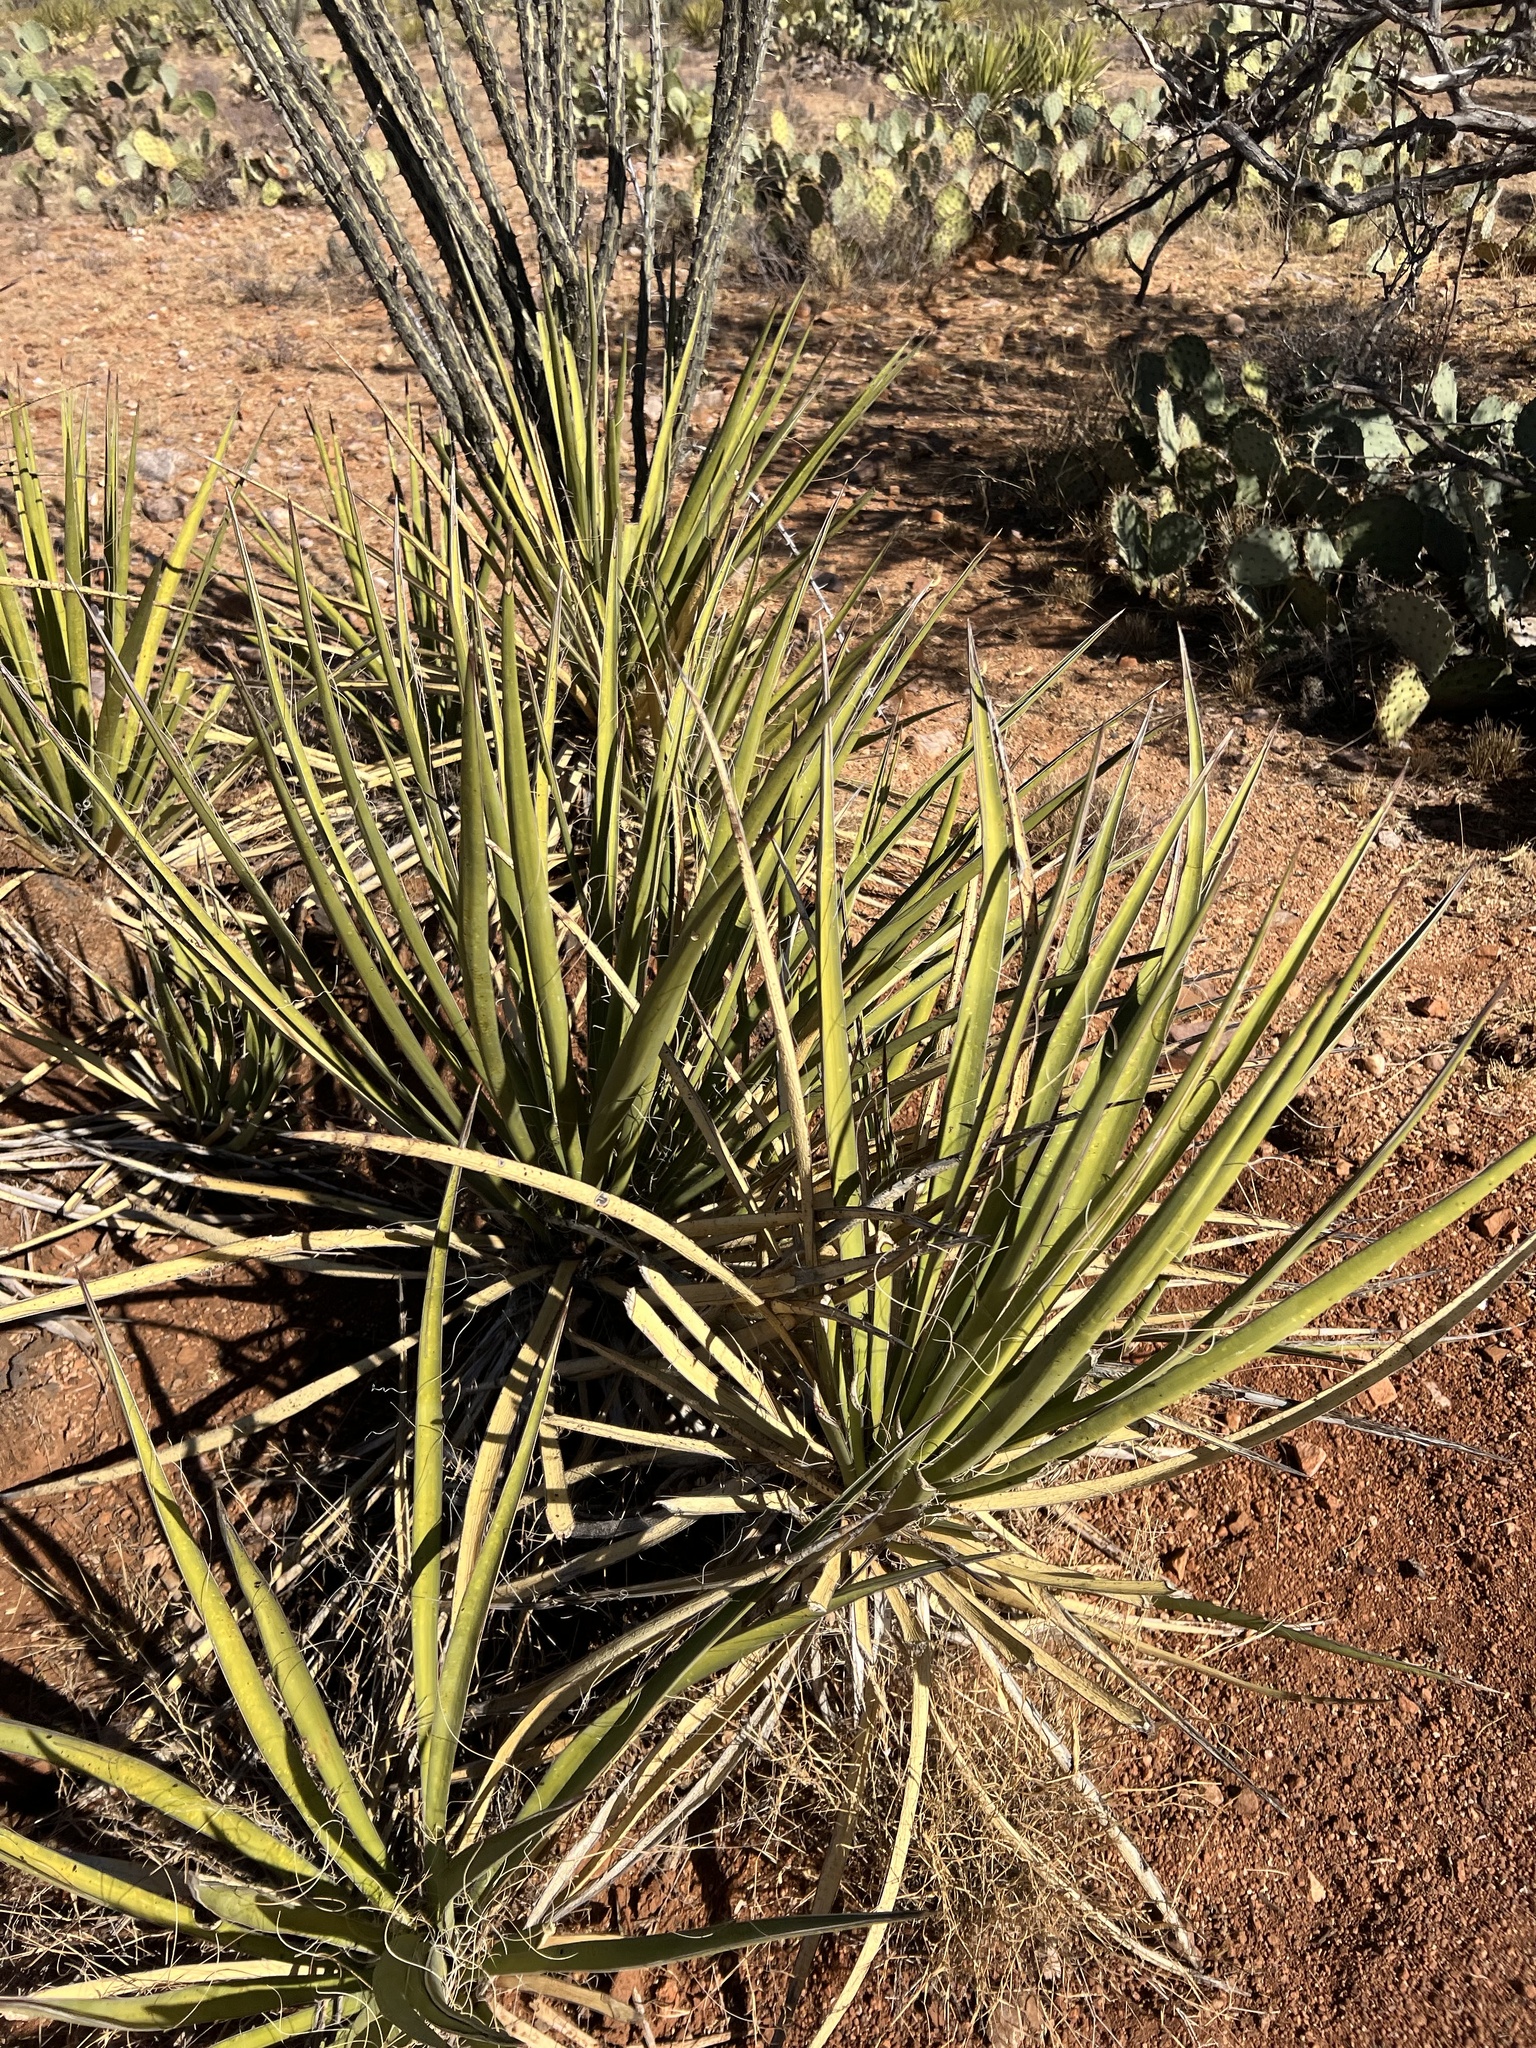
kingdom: Plantae
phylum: Tracheophyta
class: Liliopsida
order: Asparagales
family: Asparagaceae
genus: Yucca
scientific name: Yucca baccata
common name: Banana yucca
